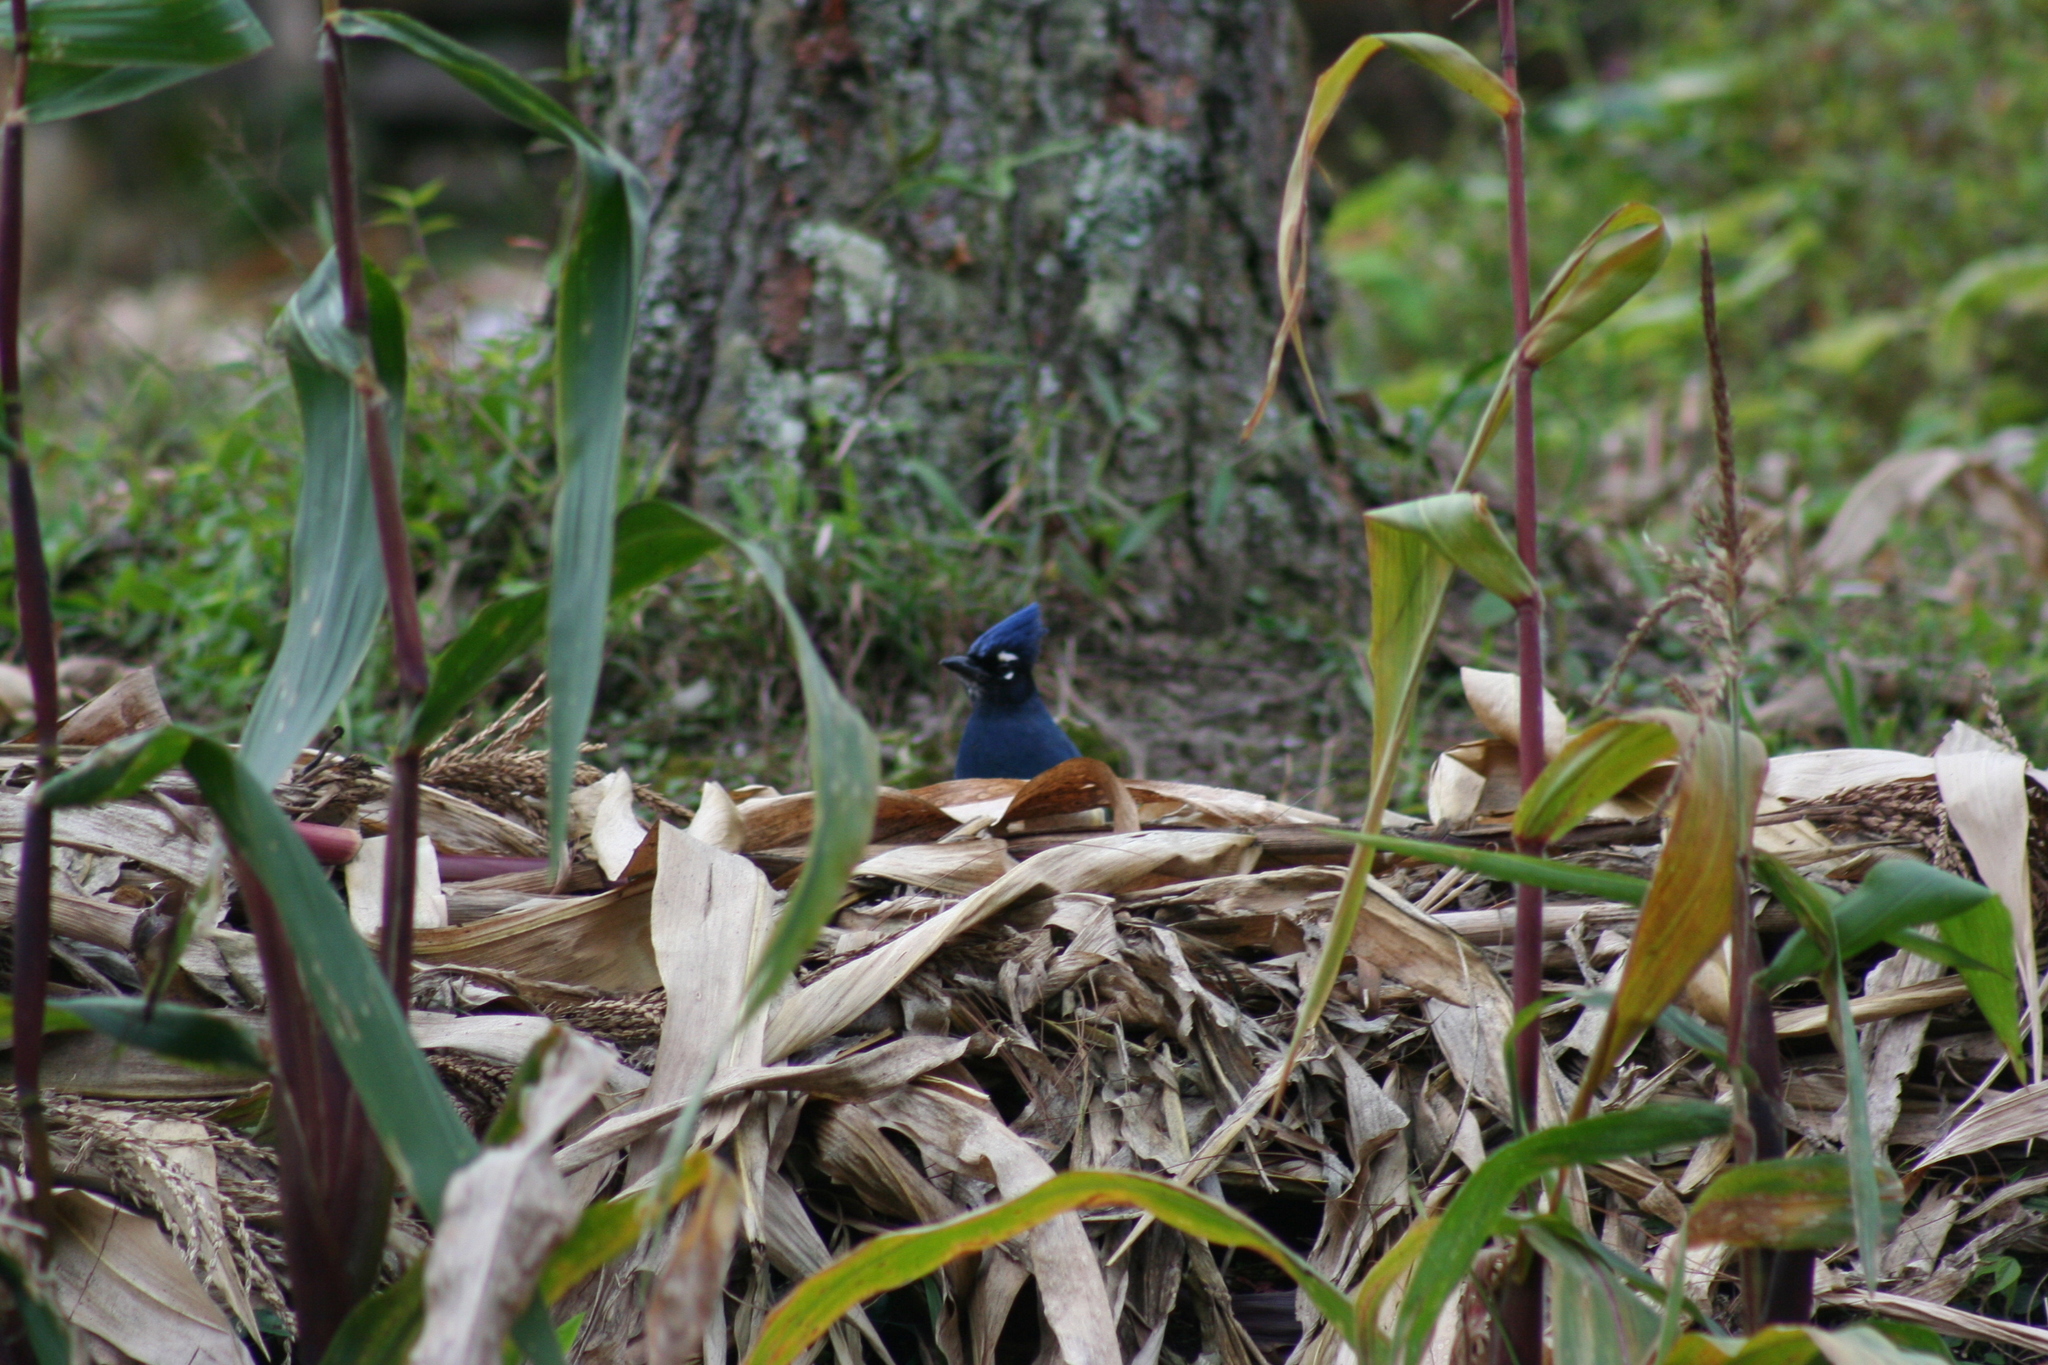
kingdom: Animalia
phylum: Chordata
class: Aves
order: Passeriformes
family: Corvidae
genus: Cyanocitta
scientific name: Cyanocitta stelleri
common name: Steller's jay
